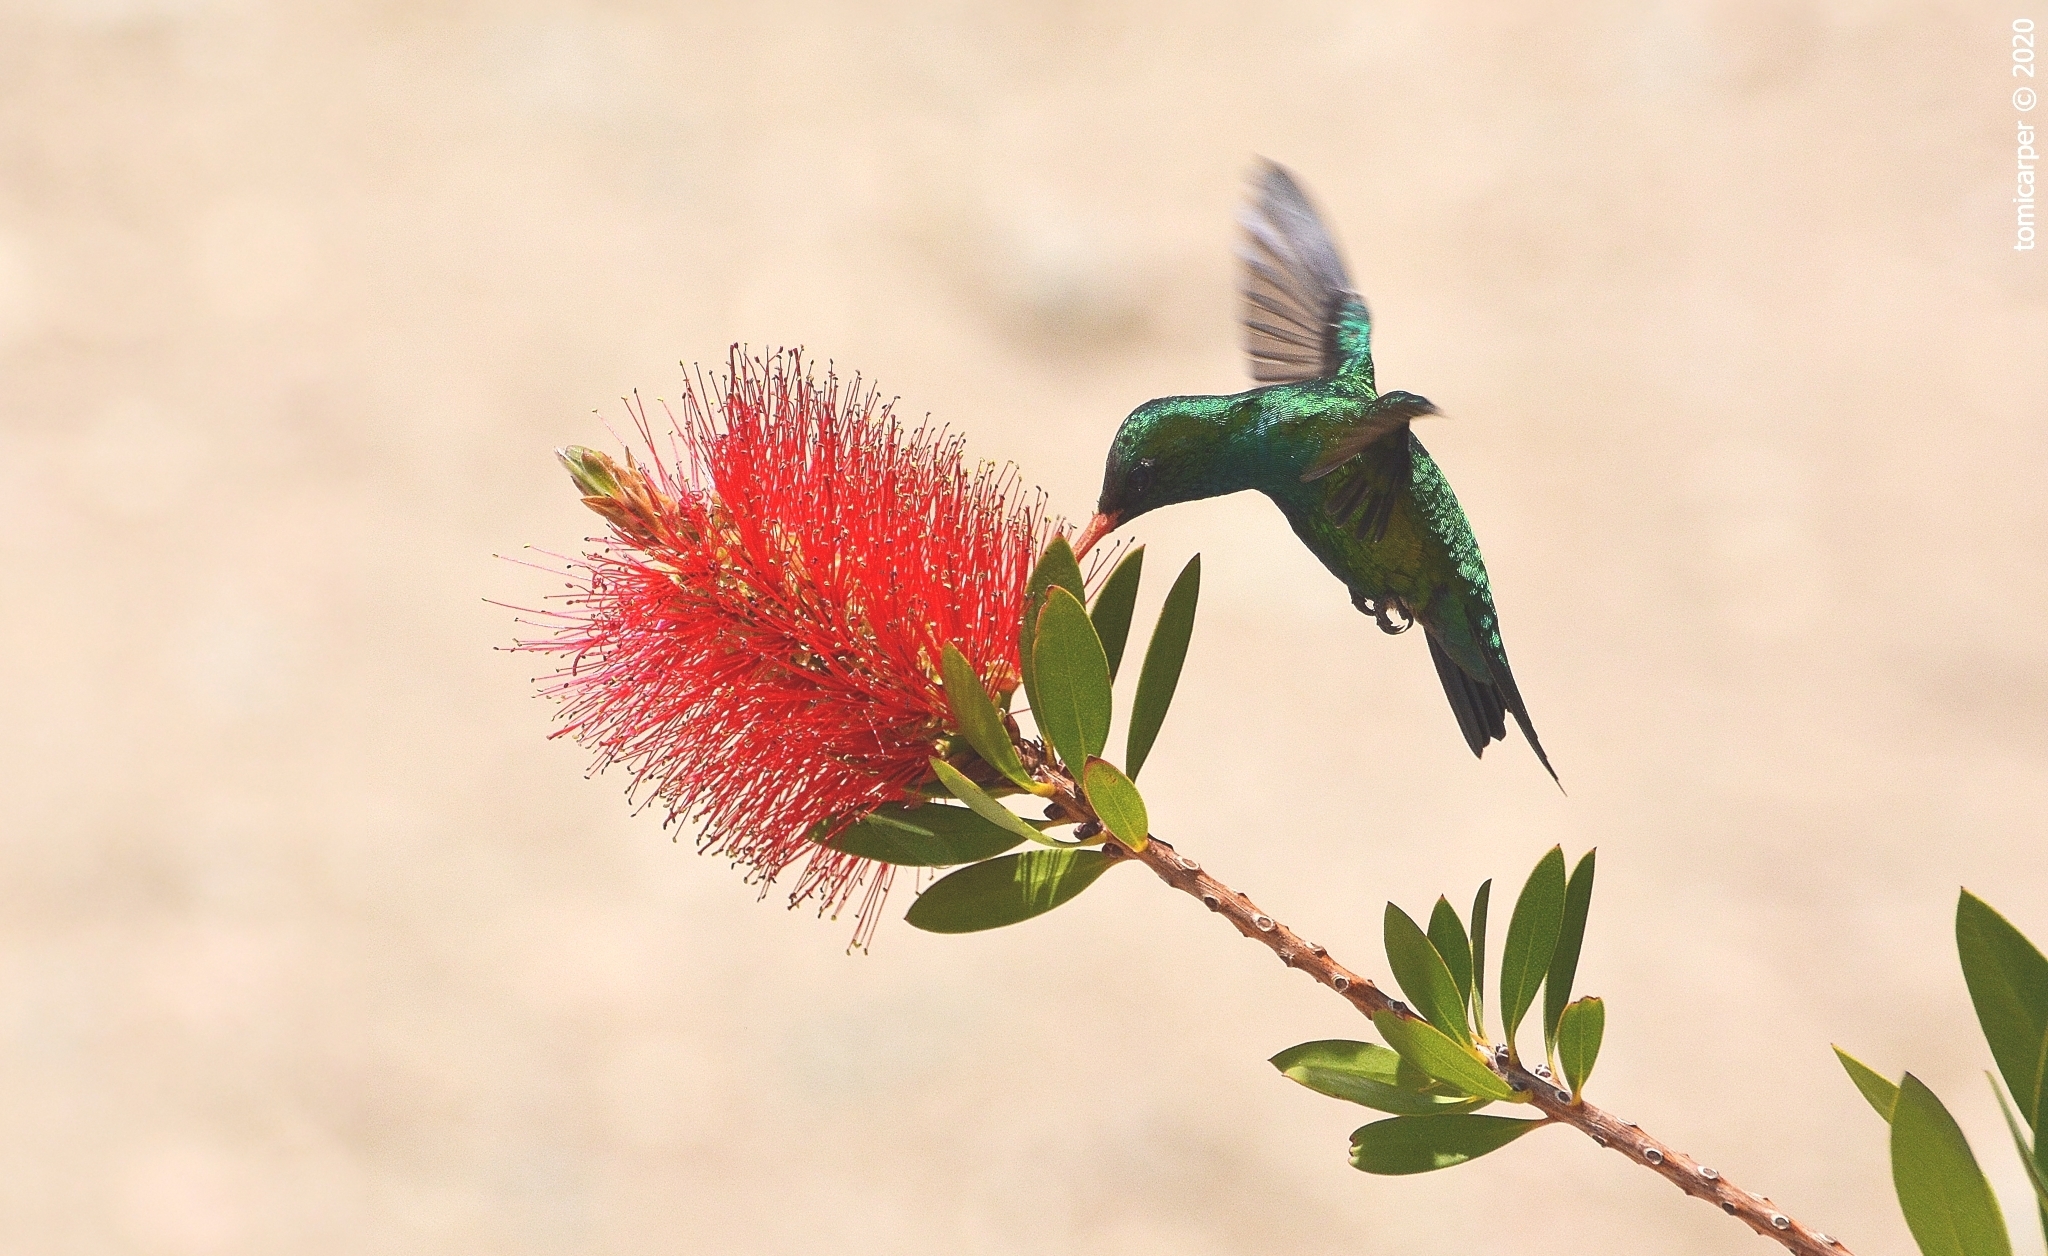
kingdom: Animalia
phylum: Chordata
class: Aves
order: Apodiformes
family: Trochilidae
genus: Chlorostilbon
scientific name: Chlorostilbon lucidus
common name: Glittering-bellied emerald
